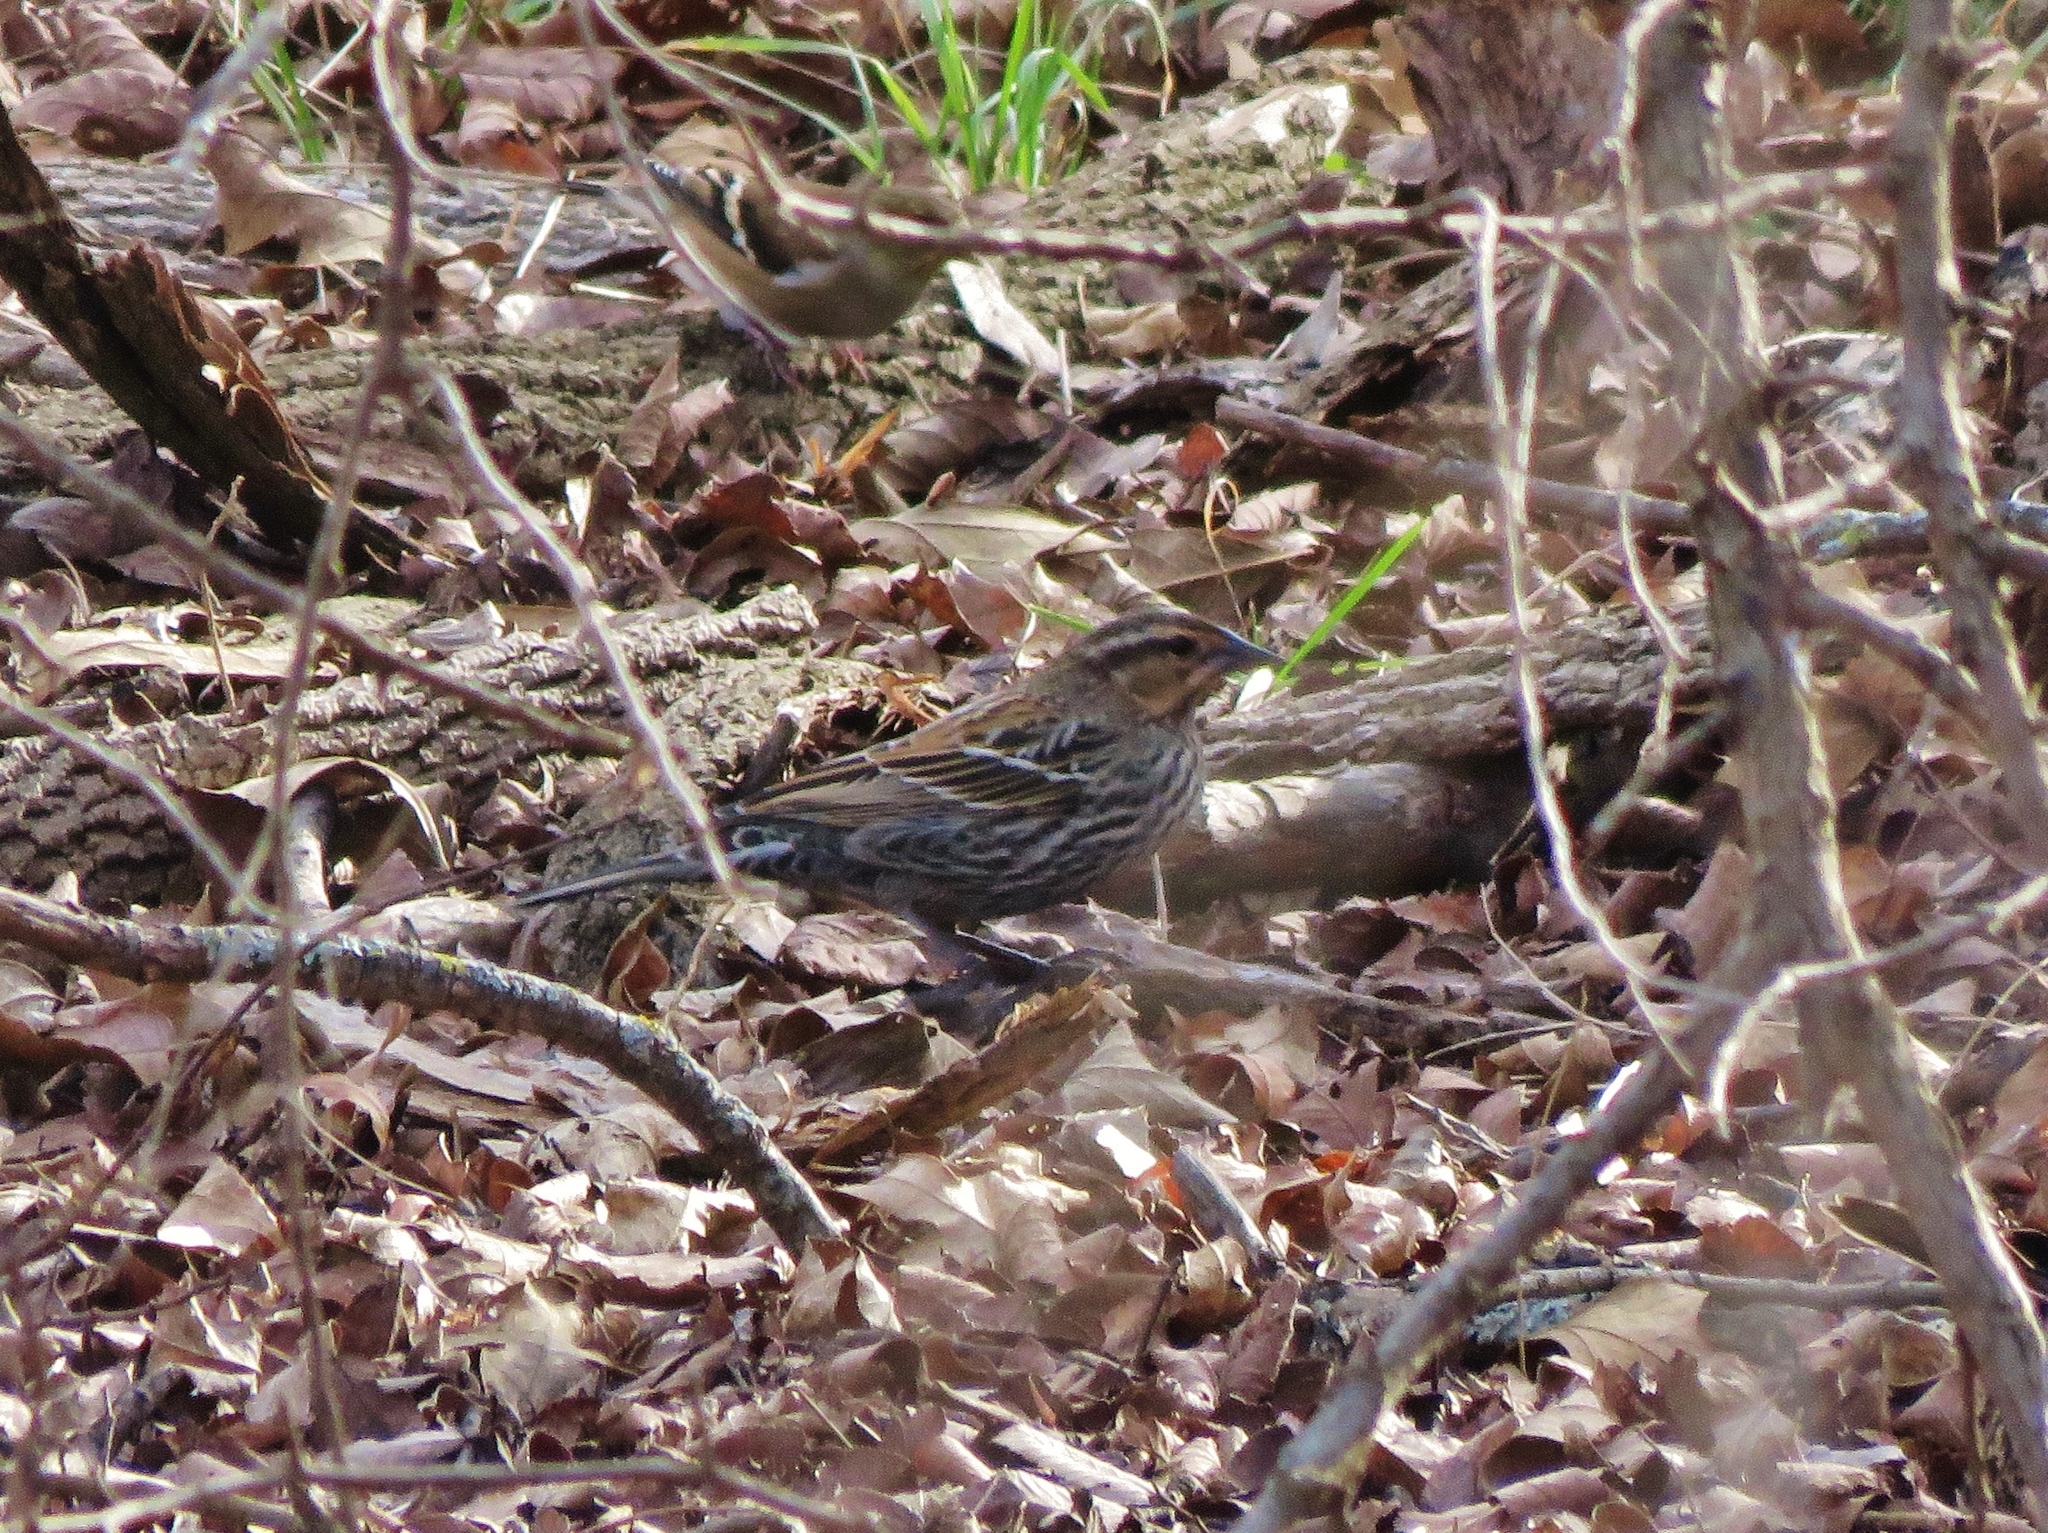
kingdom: Animalia
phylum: Chordata
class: Aves
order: Passeriformes
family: Icteridae
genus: Agelaius
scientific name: Agelaius phoeniceus
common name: Red-winged blackbird
